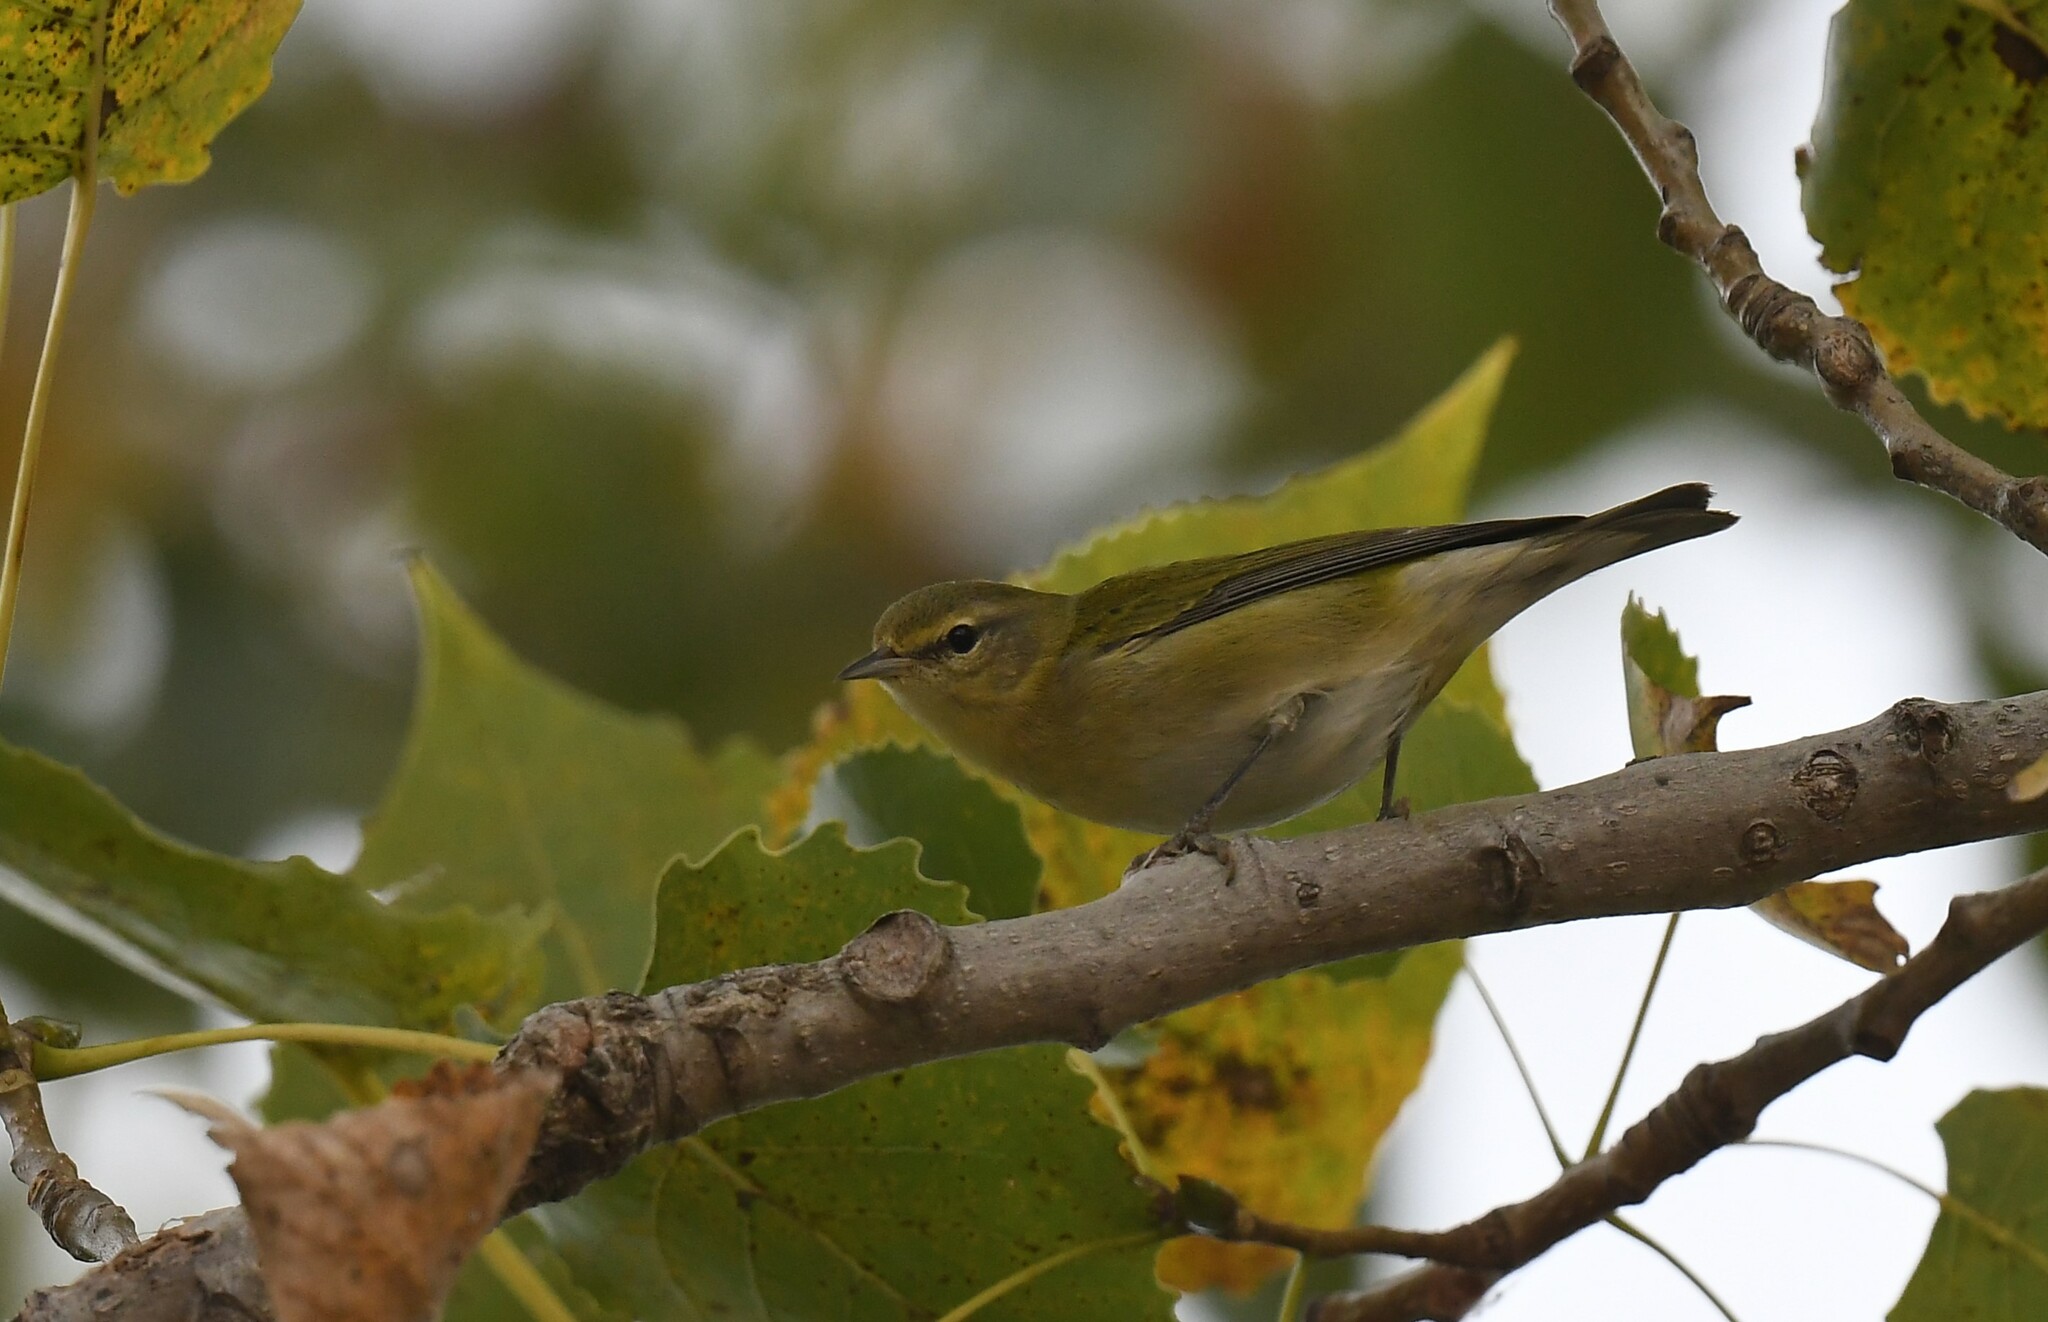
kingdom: Animalia
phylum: Chordata
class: Aves
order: Passeriformes
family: Parulidae
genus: Leiothlypis
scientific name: Leiothlypis peregrina
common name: Tennessee warbler
